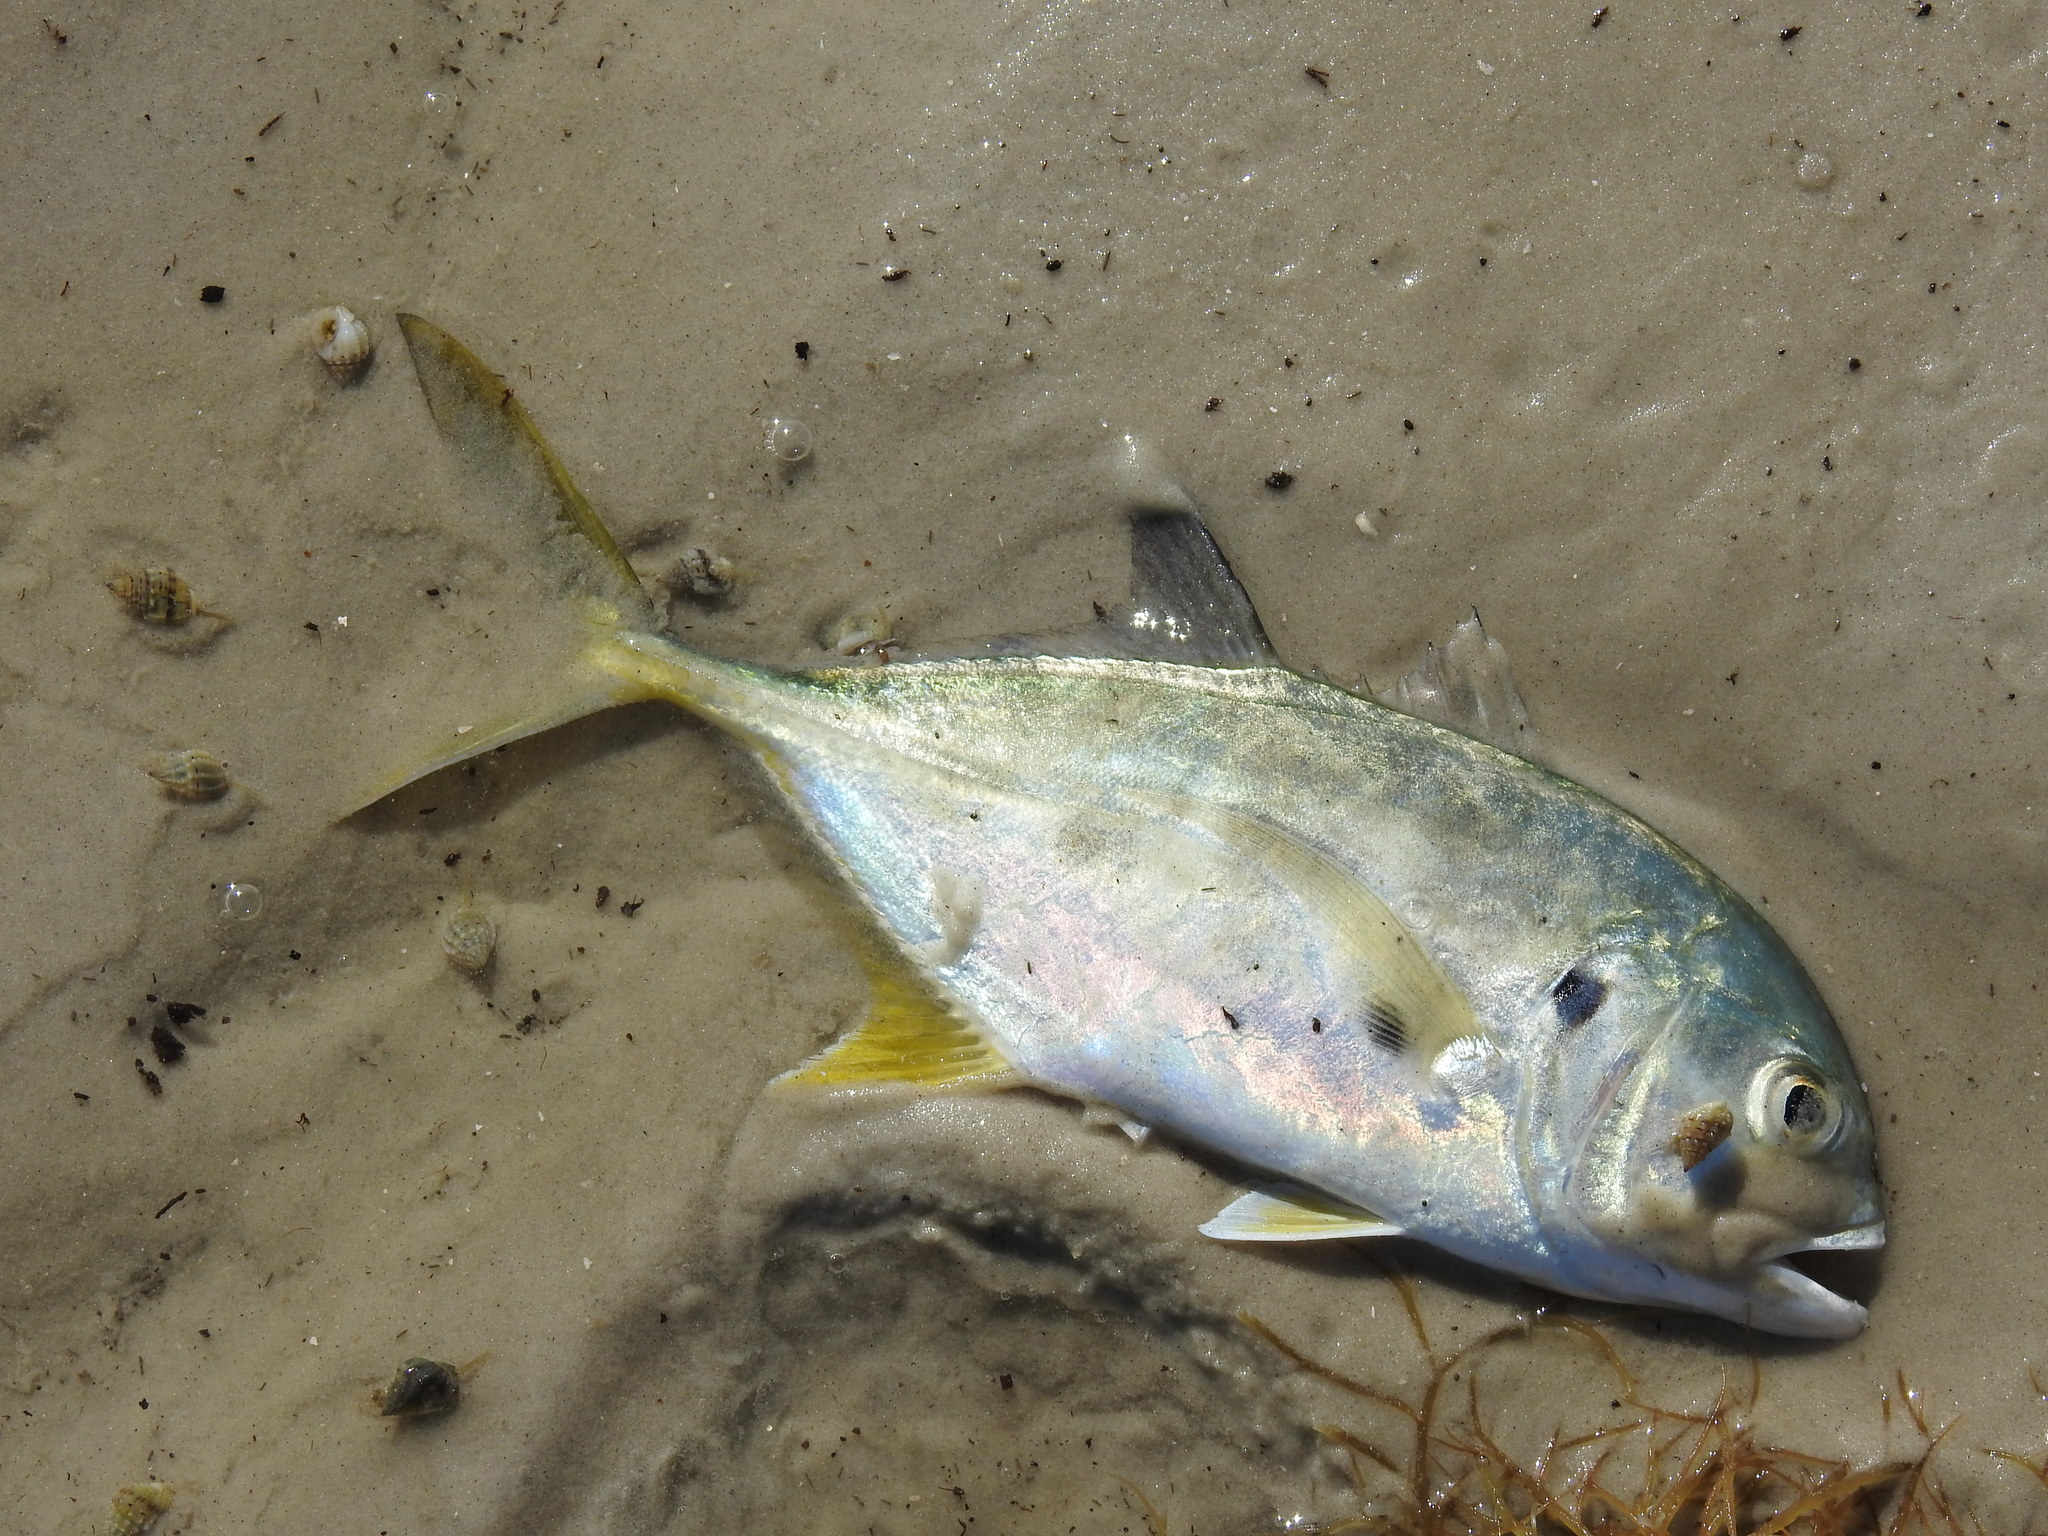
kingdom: Animalia
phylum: Chordata
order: Perciformes
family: Carangidae
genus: Caranx
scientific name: Caranx hippos
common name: Common jack
